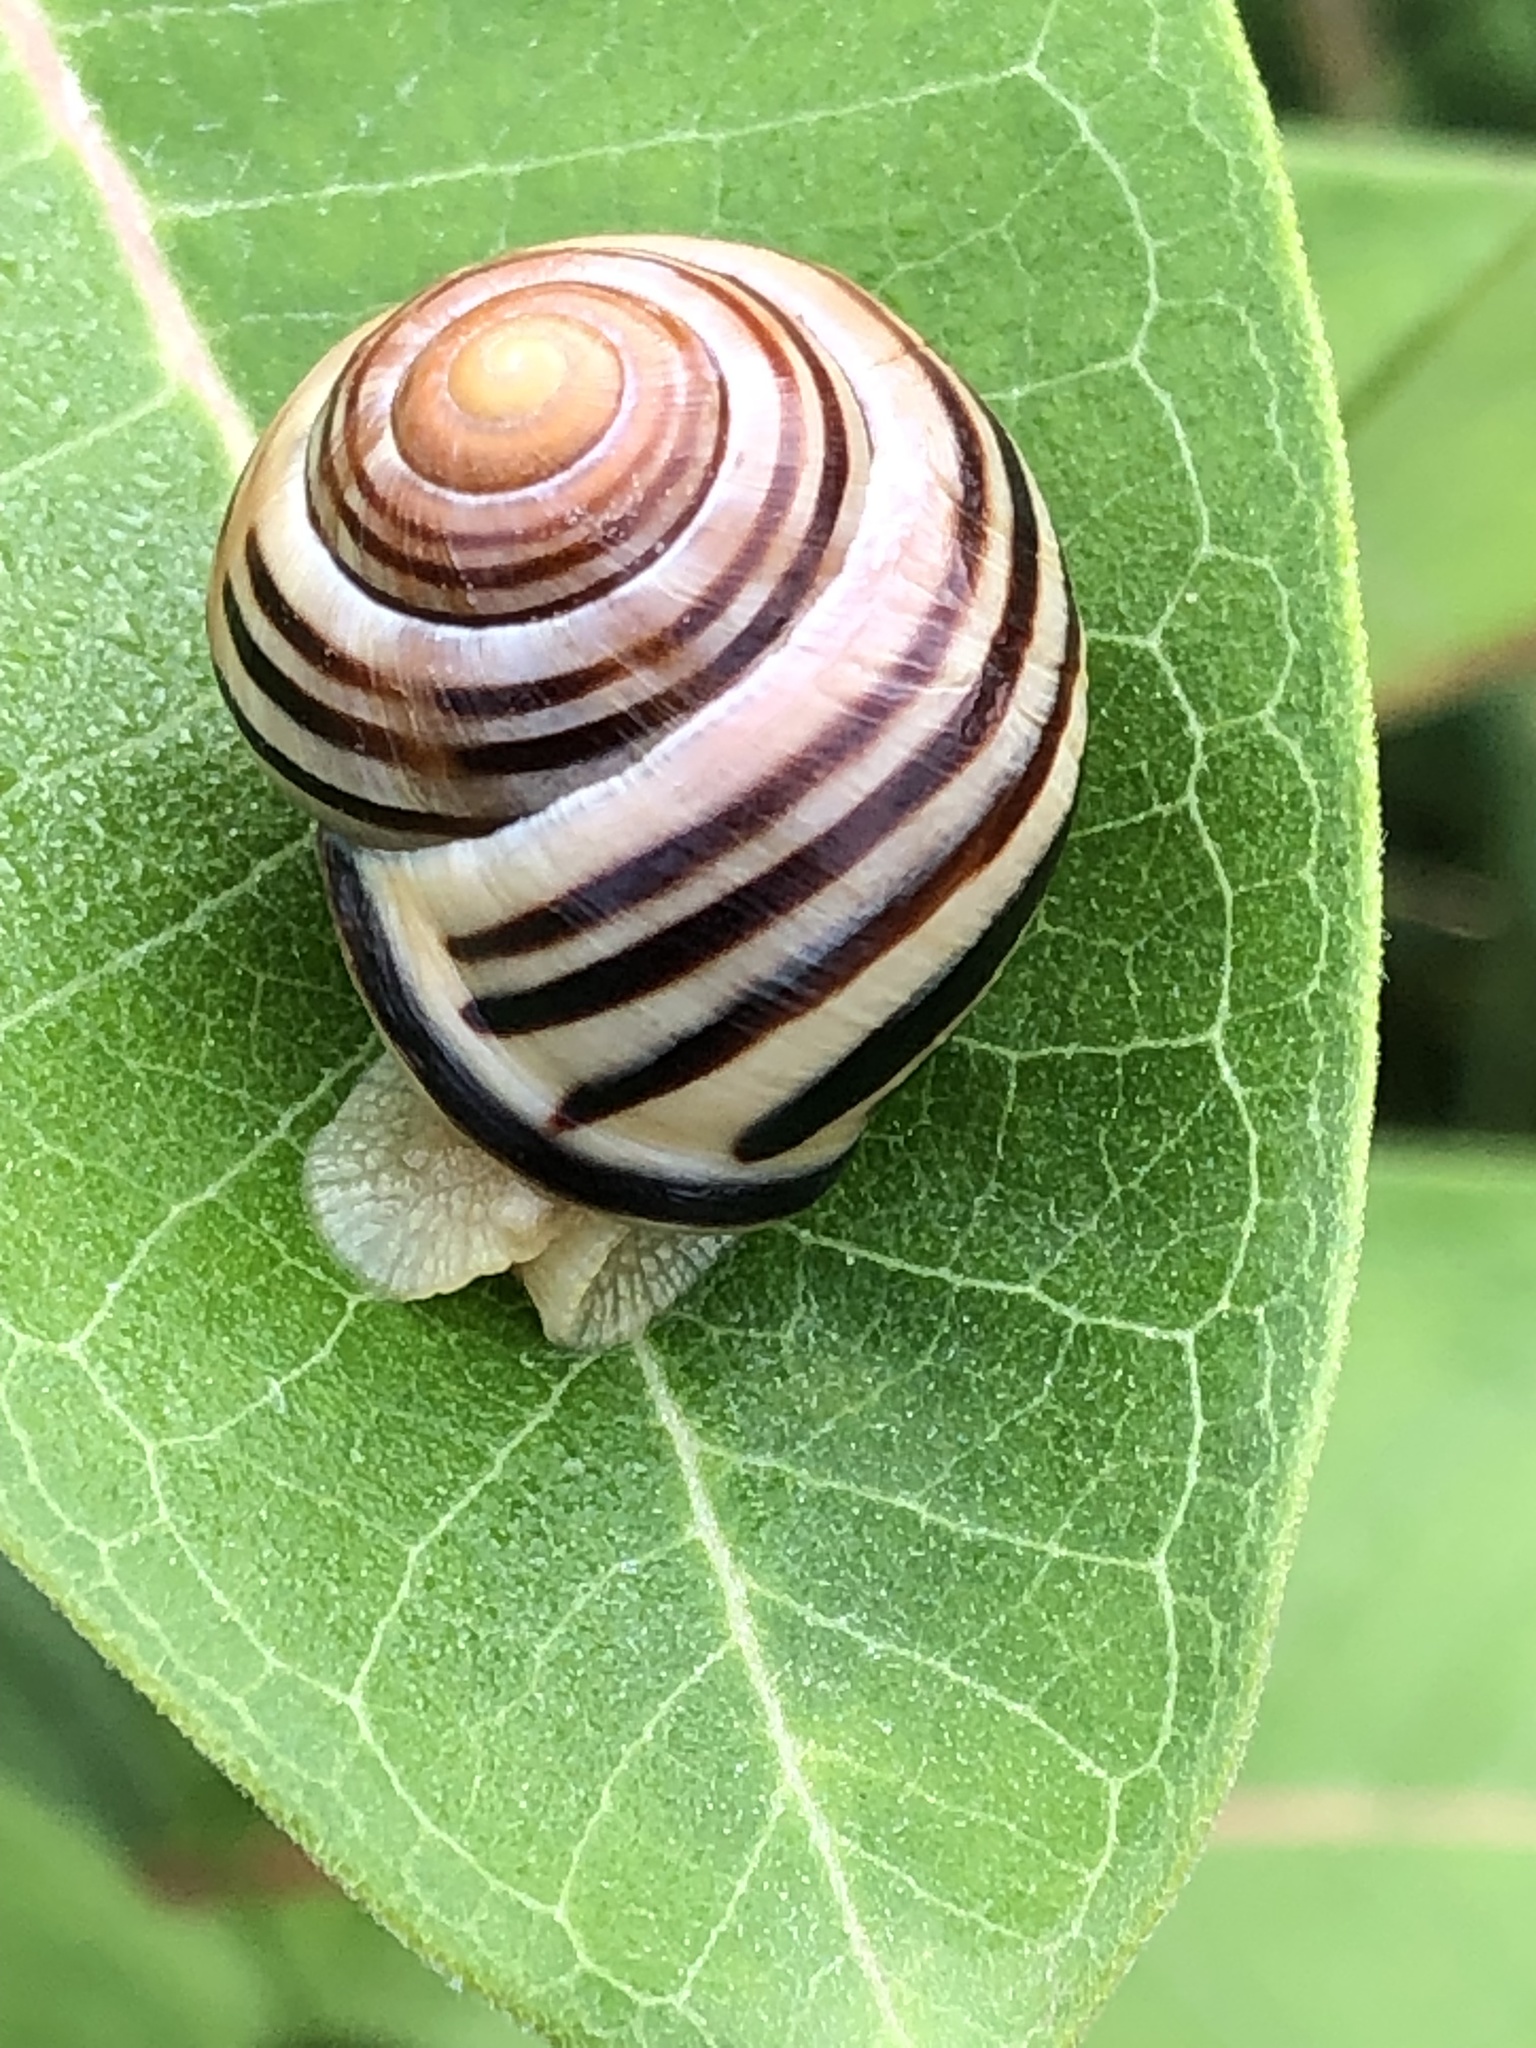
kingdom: Animalia
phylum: Mollusca
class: Gastropoda
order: Stylommatophora
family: Helicidae
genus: Cepaea
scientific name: Cepaea nemoralis
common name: Grovesnail
